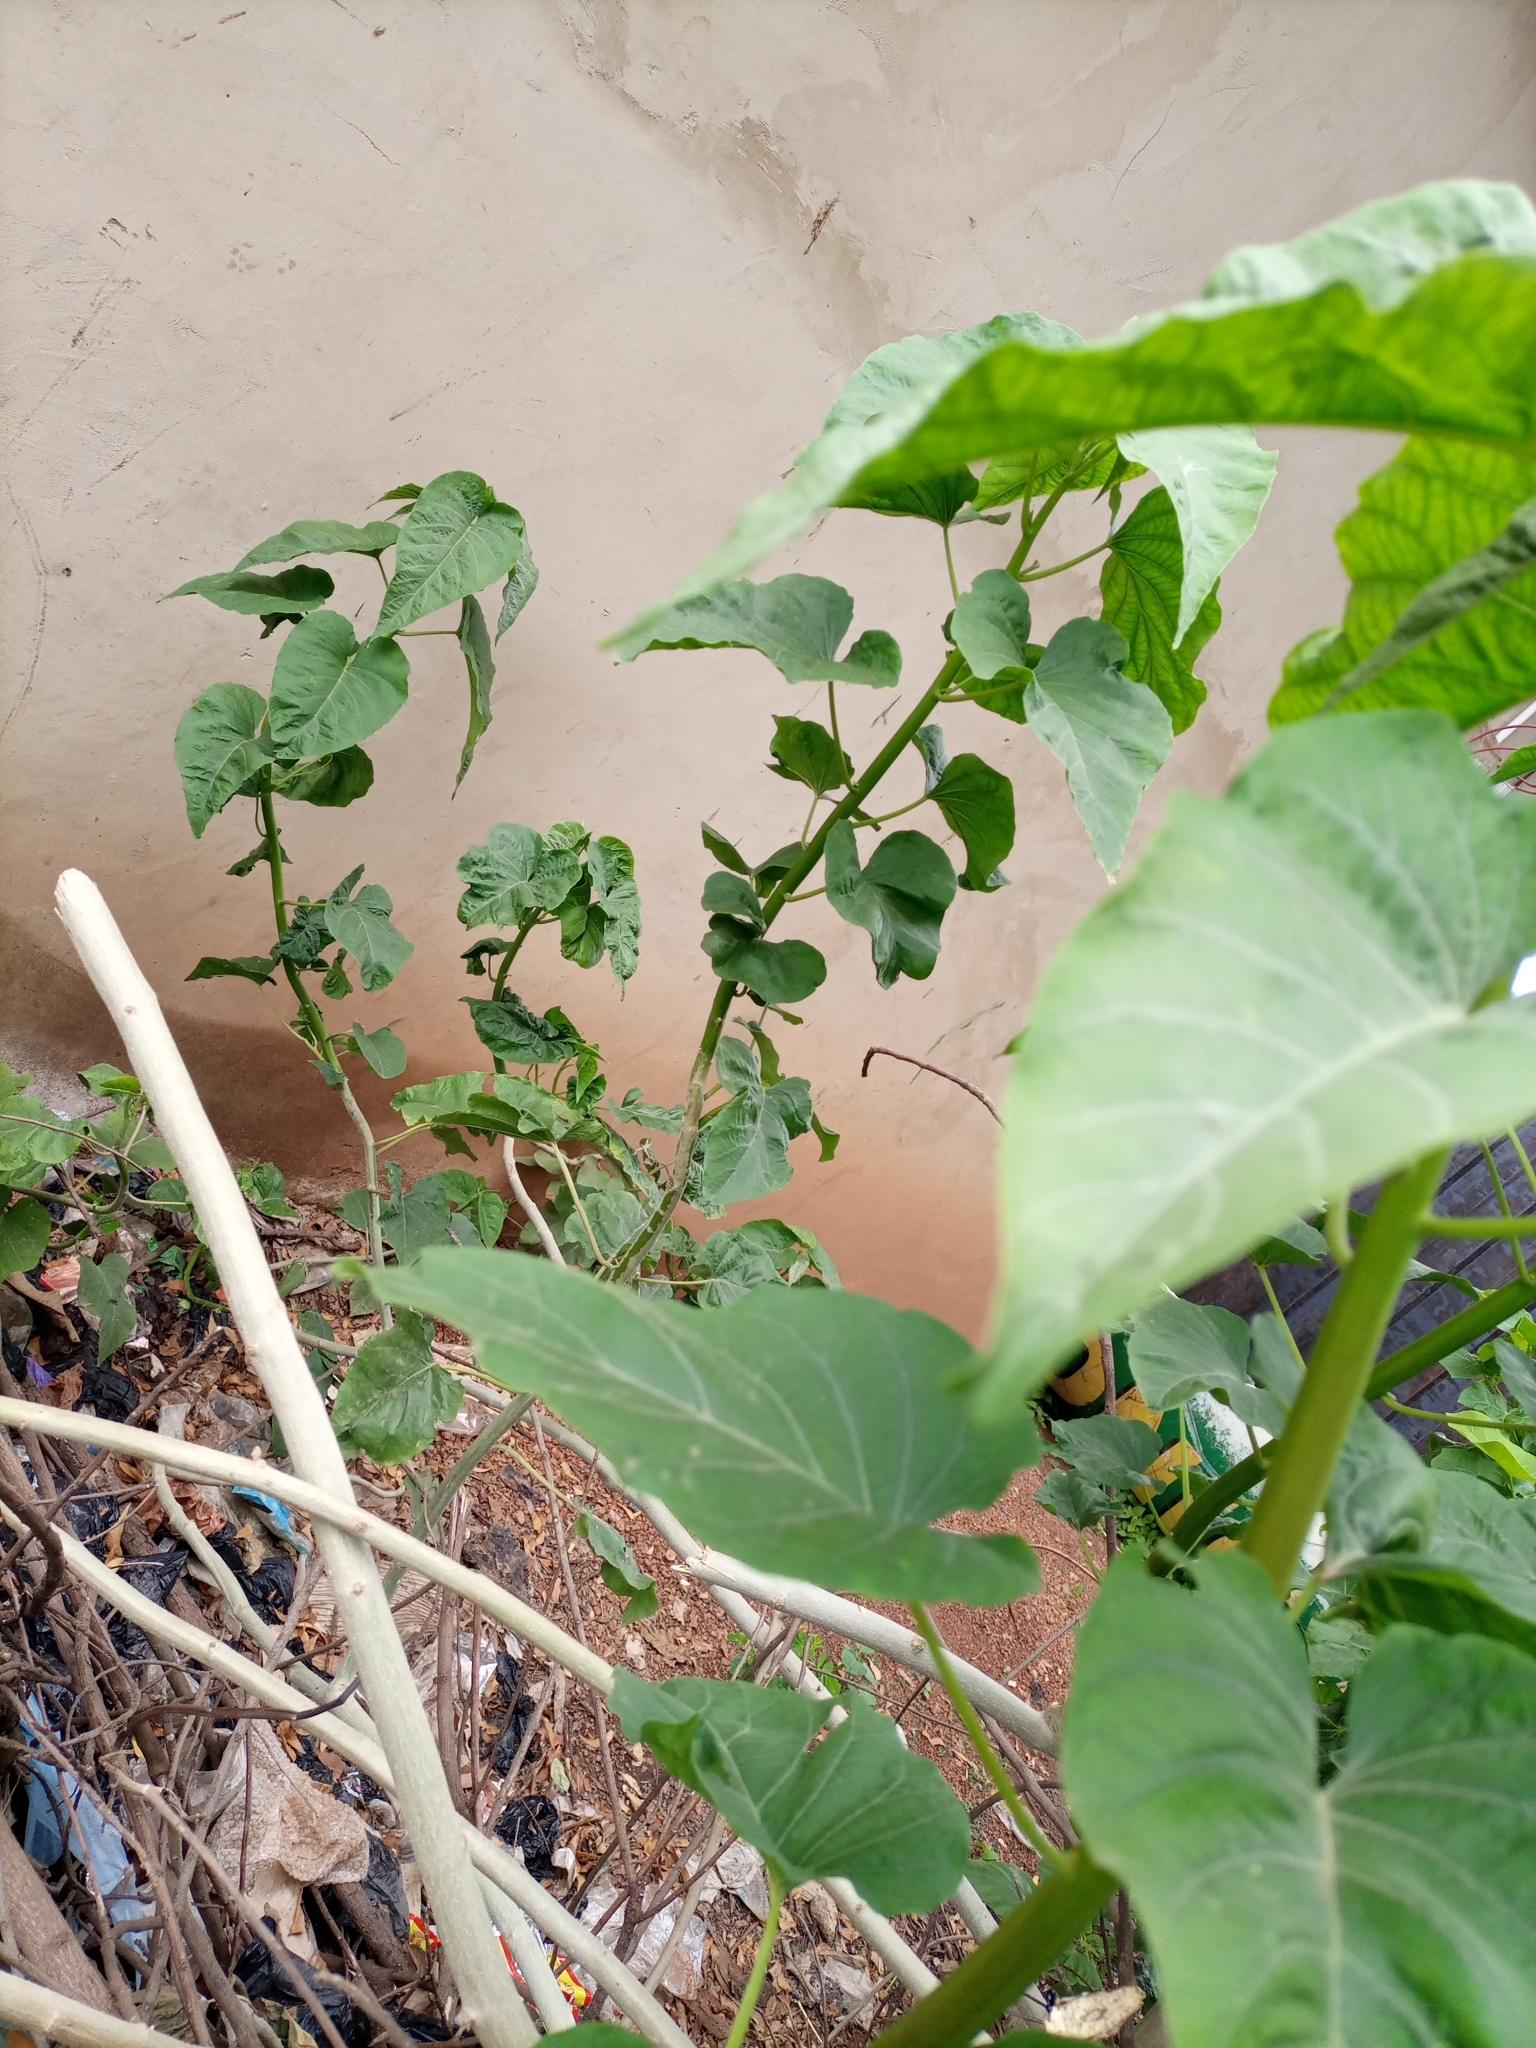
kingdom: Plantae
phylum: Tracheophyta
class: Magnoliopsida
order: Solanales
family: Convolvulaceae
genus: Ipomoea
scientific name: Ipomoea carnea
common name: Morning-glory
